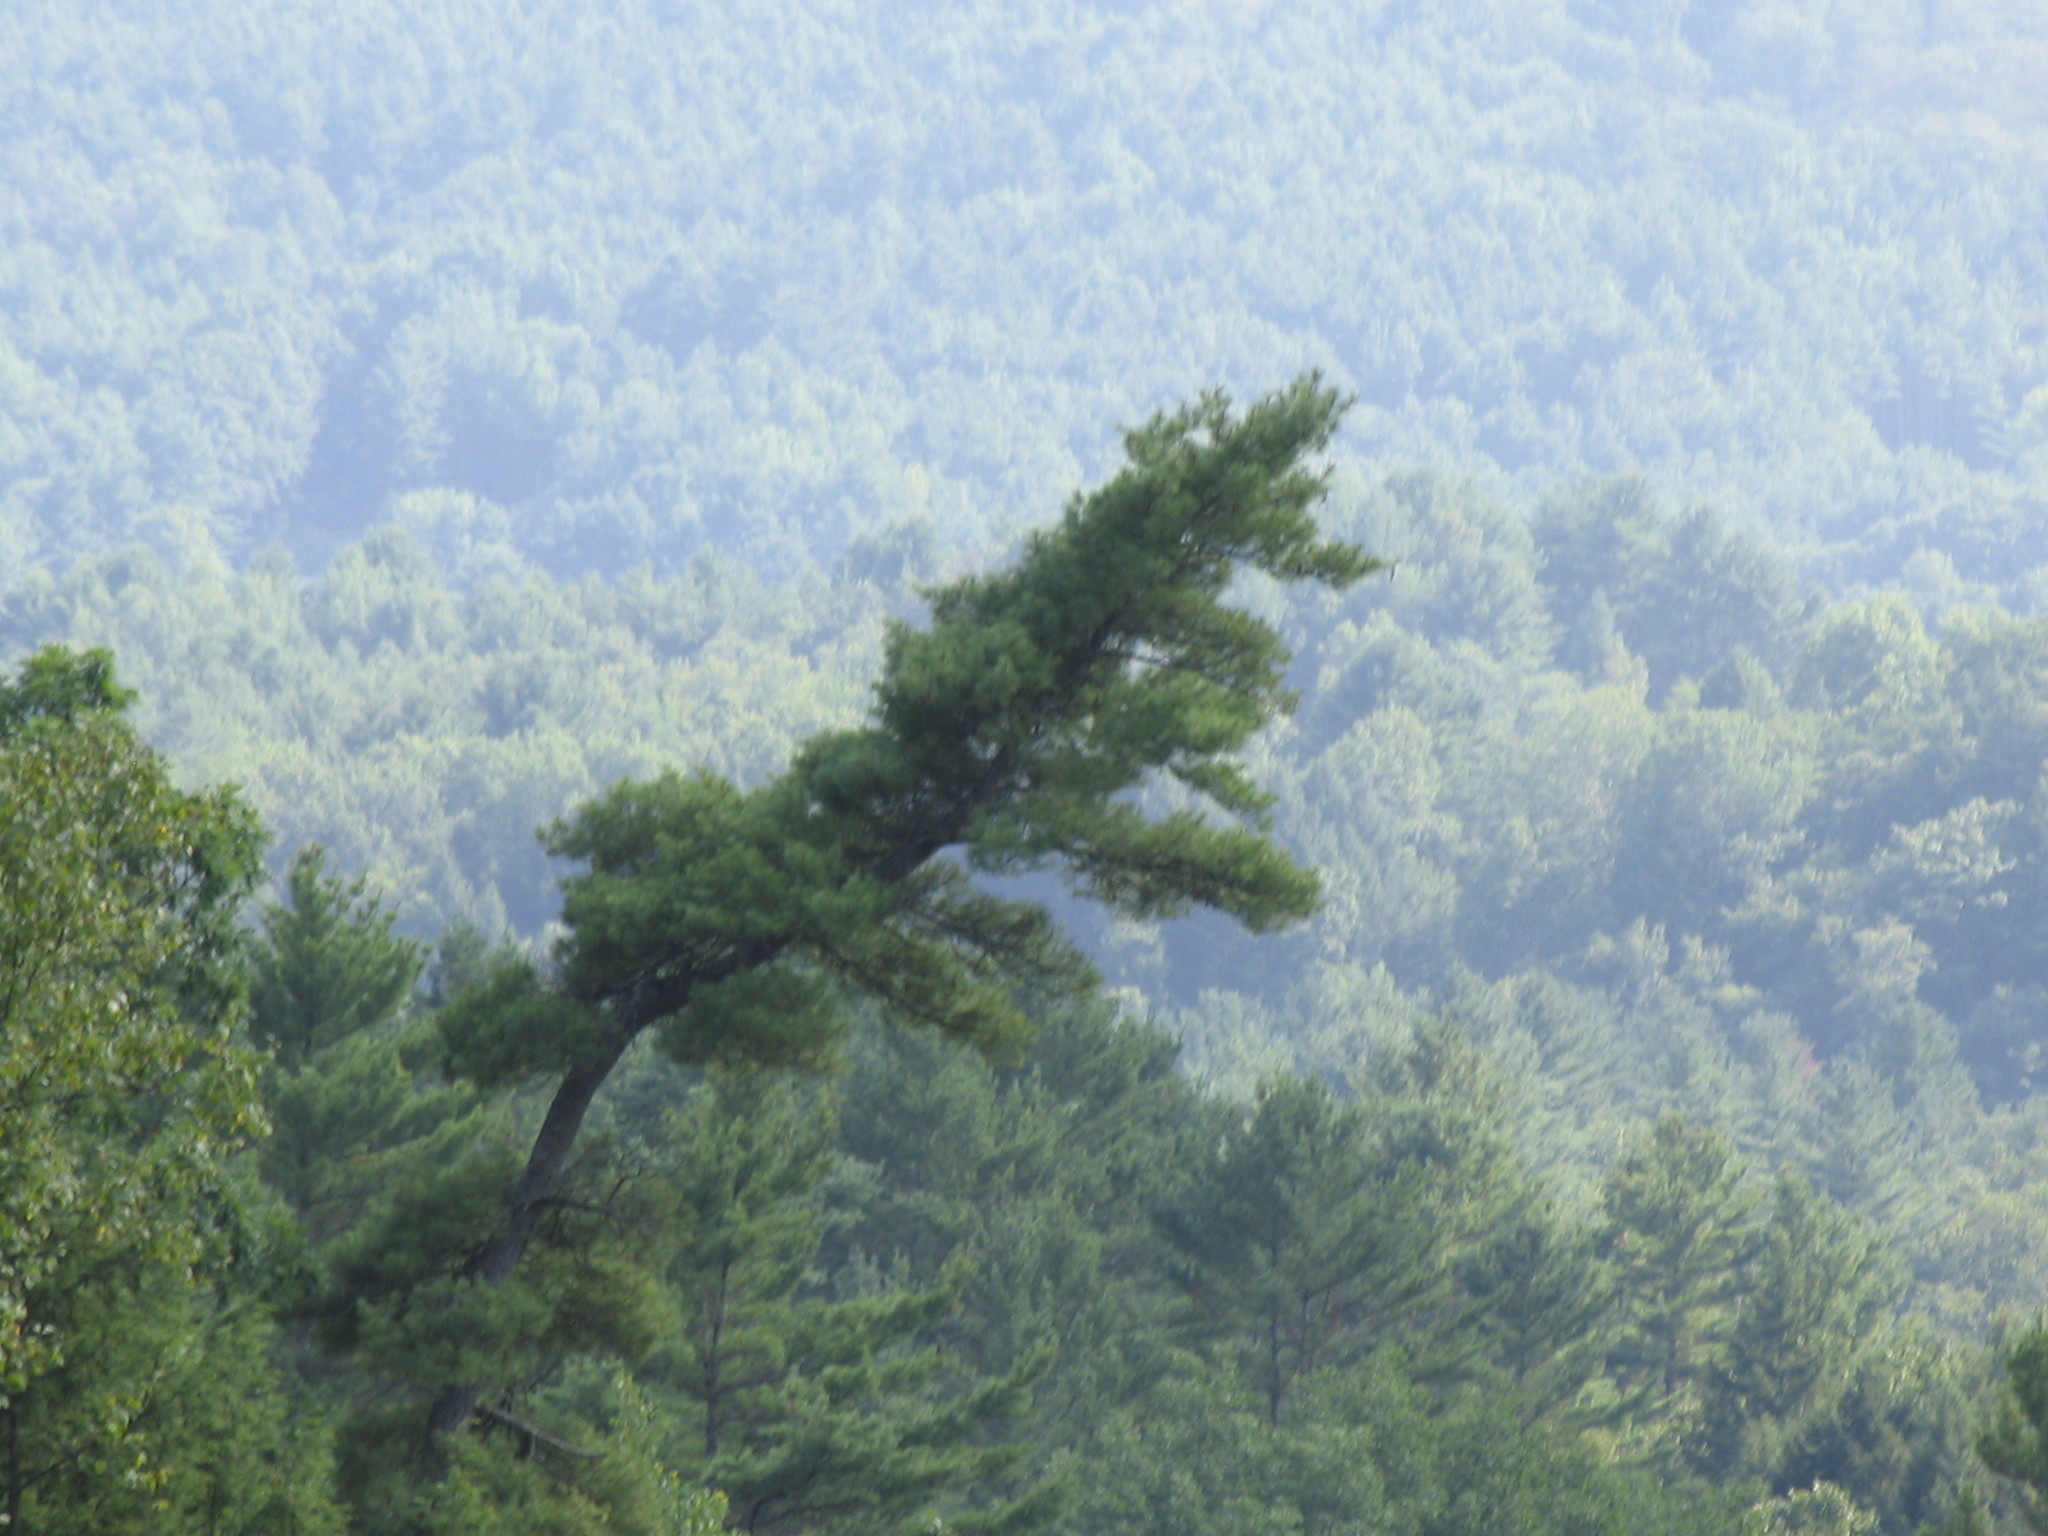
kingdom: Plantae
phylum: Tracheophyta
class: Pinopsida
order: Pinales
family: Pinaceae
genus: Pinus
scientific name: Pinus strobus
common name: Weymouth pine
